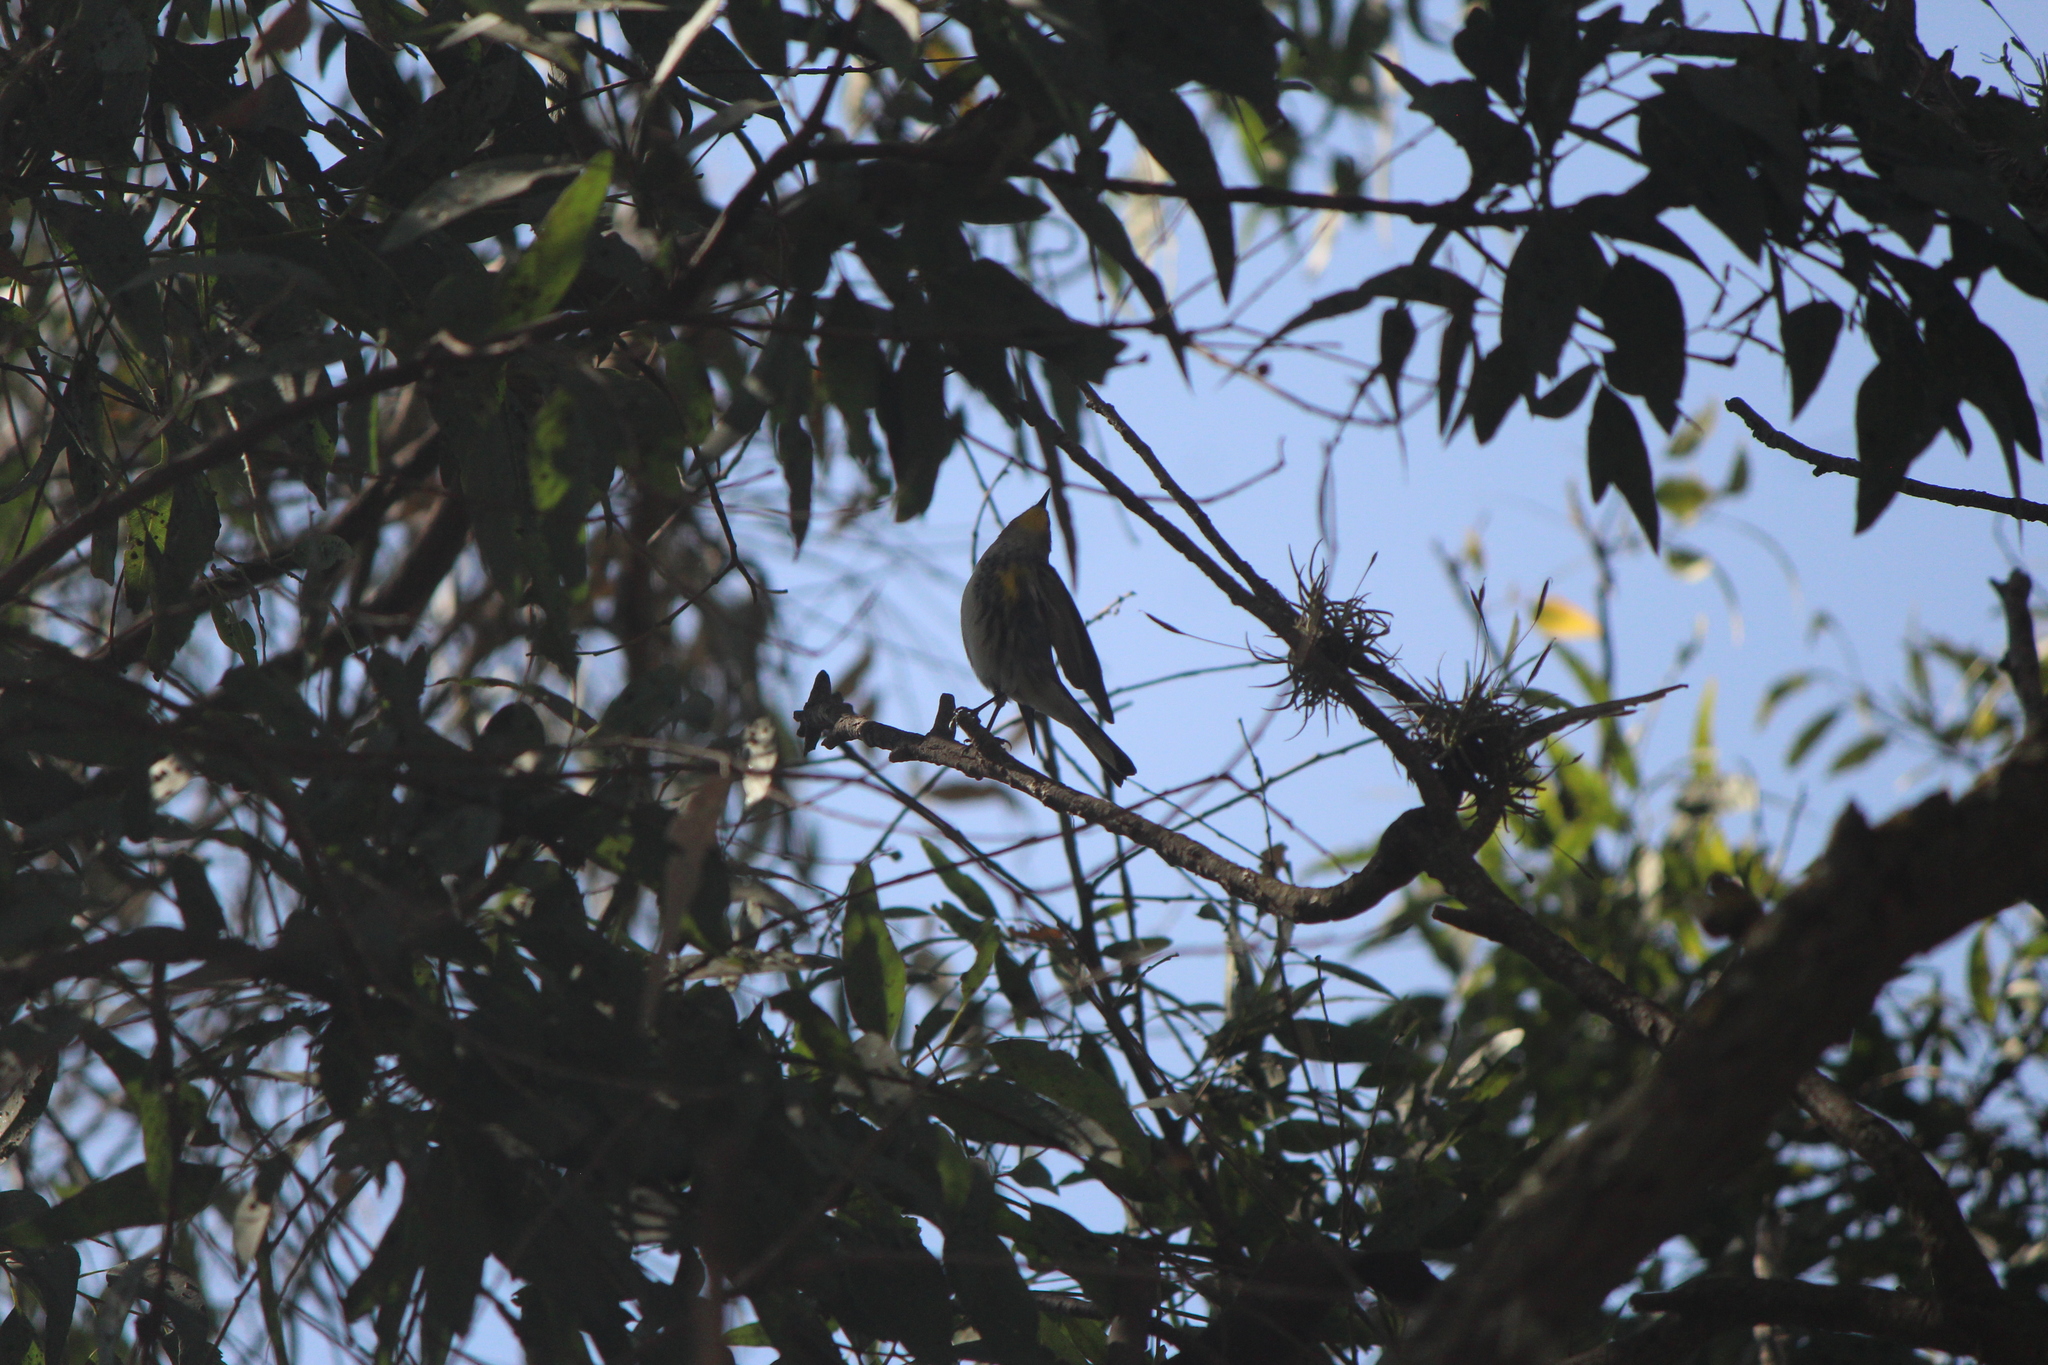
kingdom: Animalia
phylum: Chordata
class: Aves
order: Passeriformes
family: Parulidae
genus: Setophaga
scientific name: Setophaga auduboni
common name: Audubon's warbler
